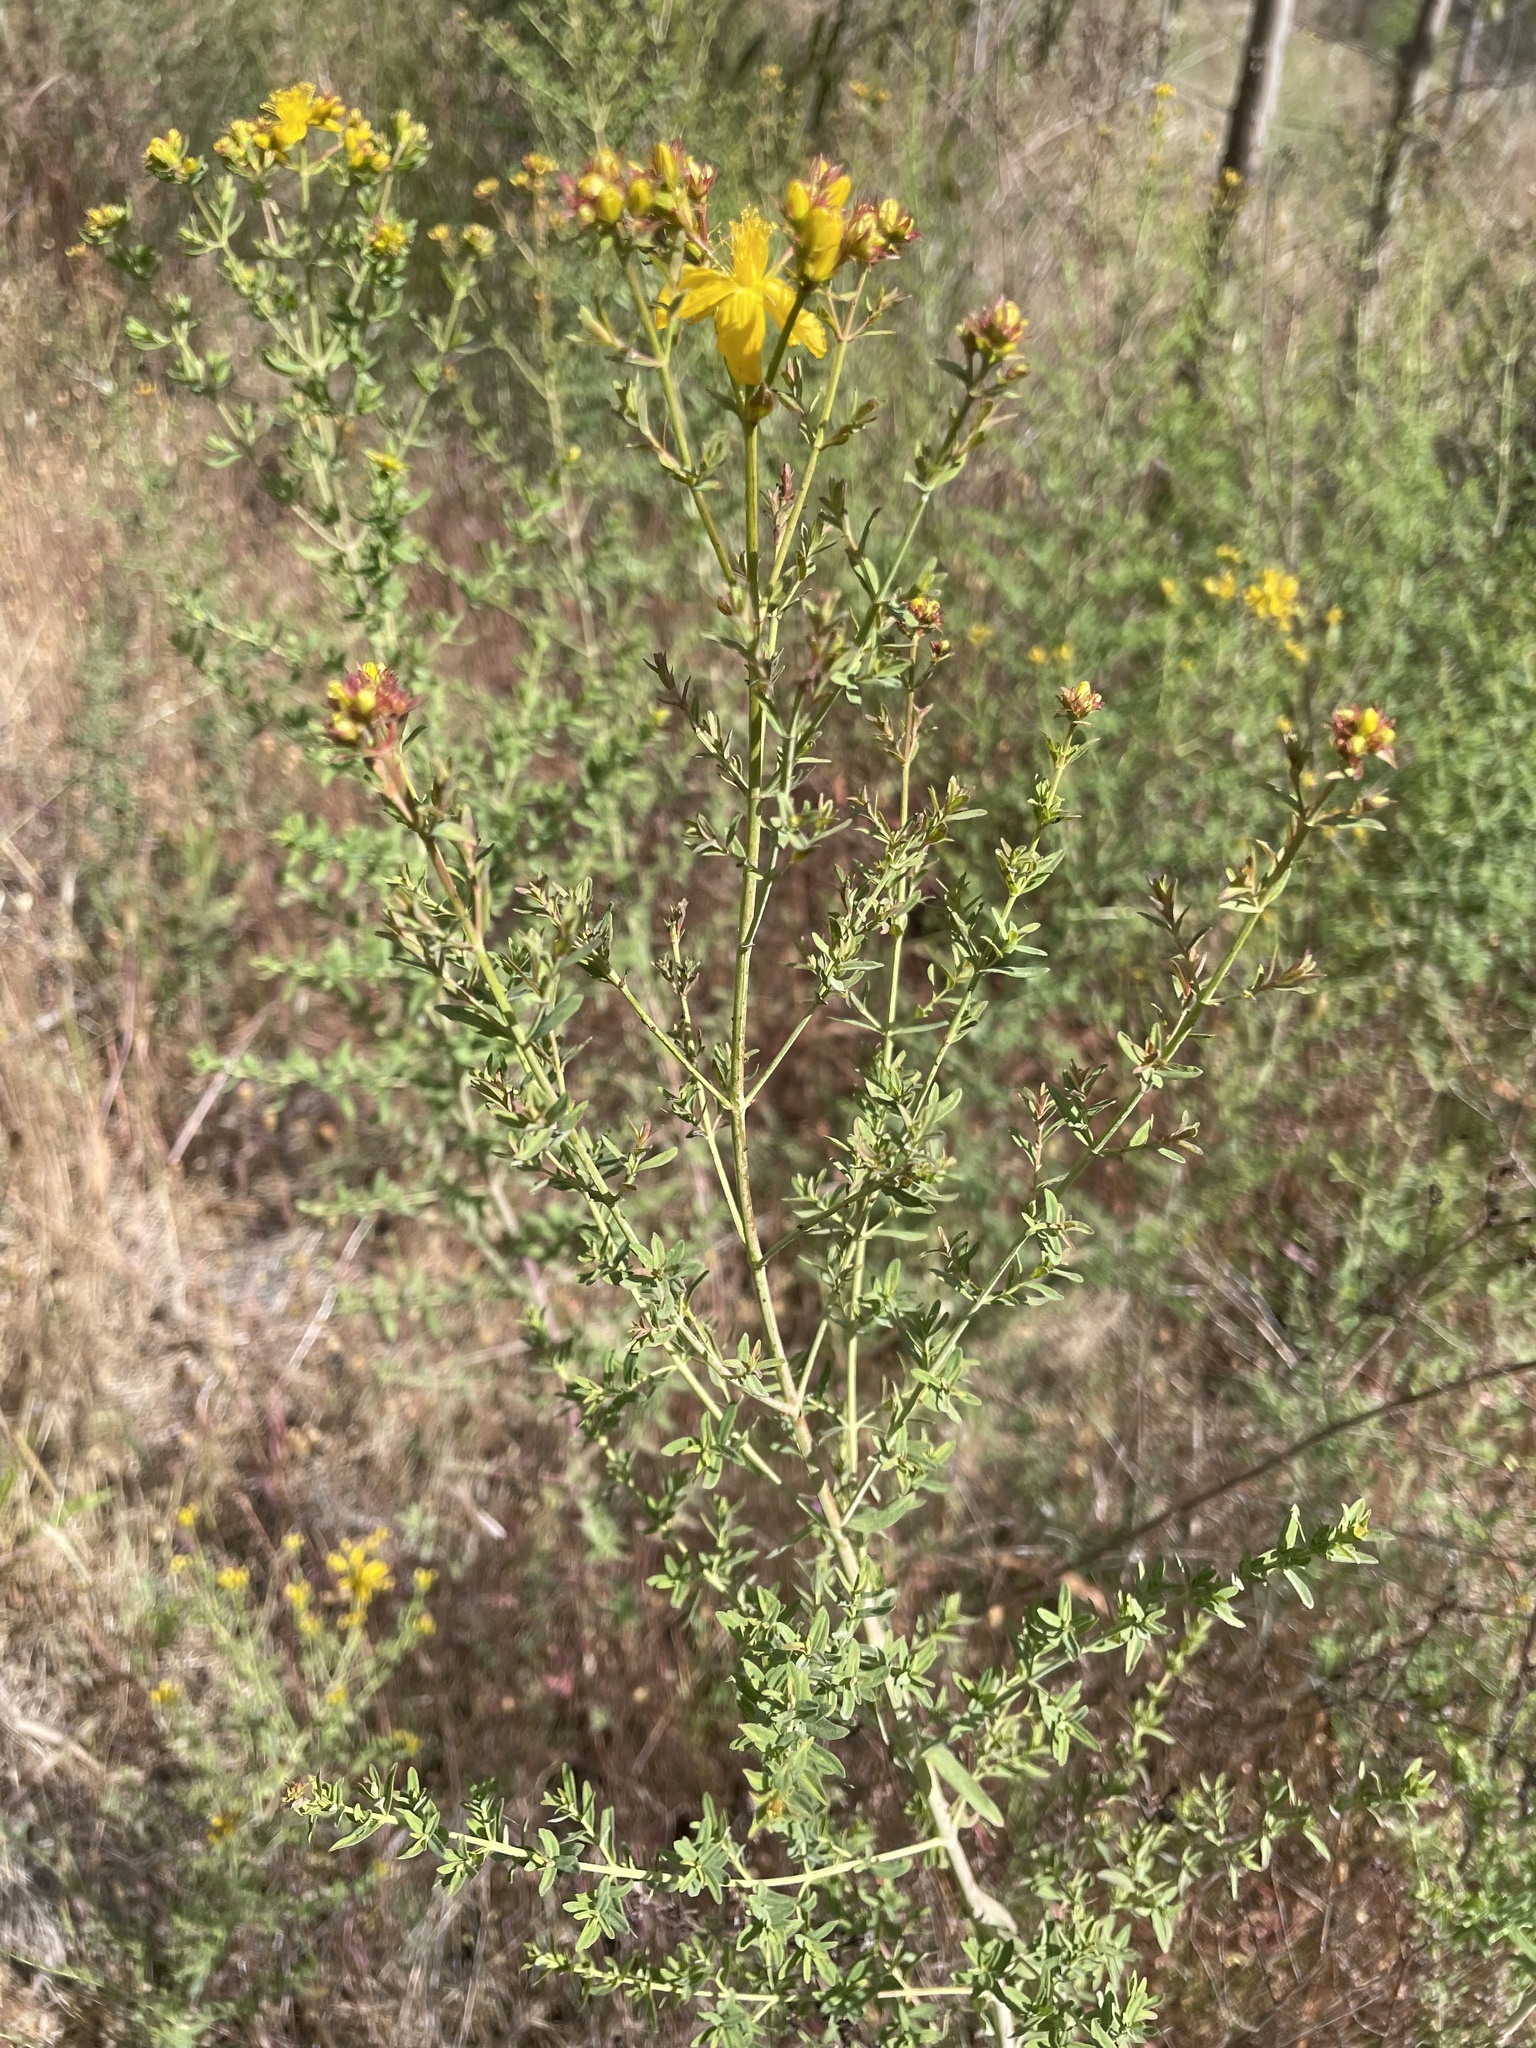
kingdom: Plantae
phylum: Tracheophyta
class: Magnoliopsida
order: Malpighiales
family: Hypericaceae
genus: Hypericum
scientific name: Hypericum perforatum
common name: Common st. johnswort
